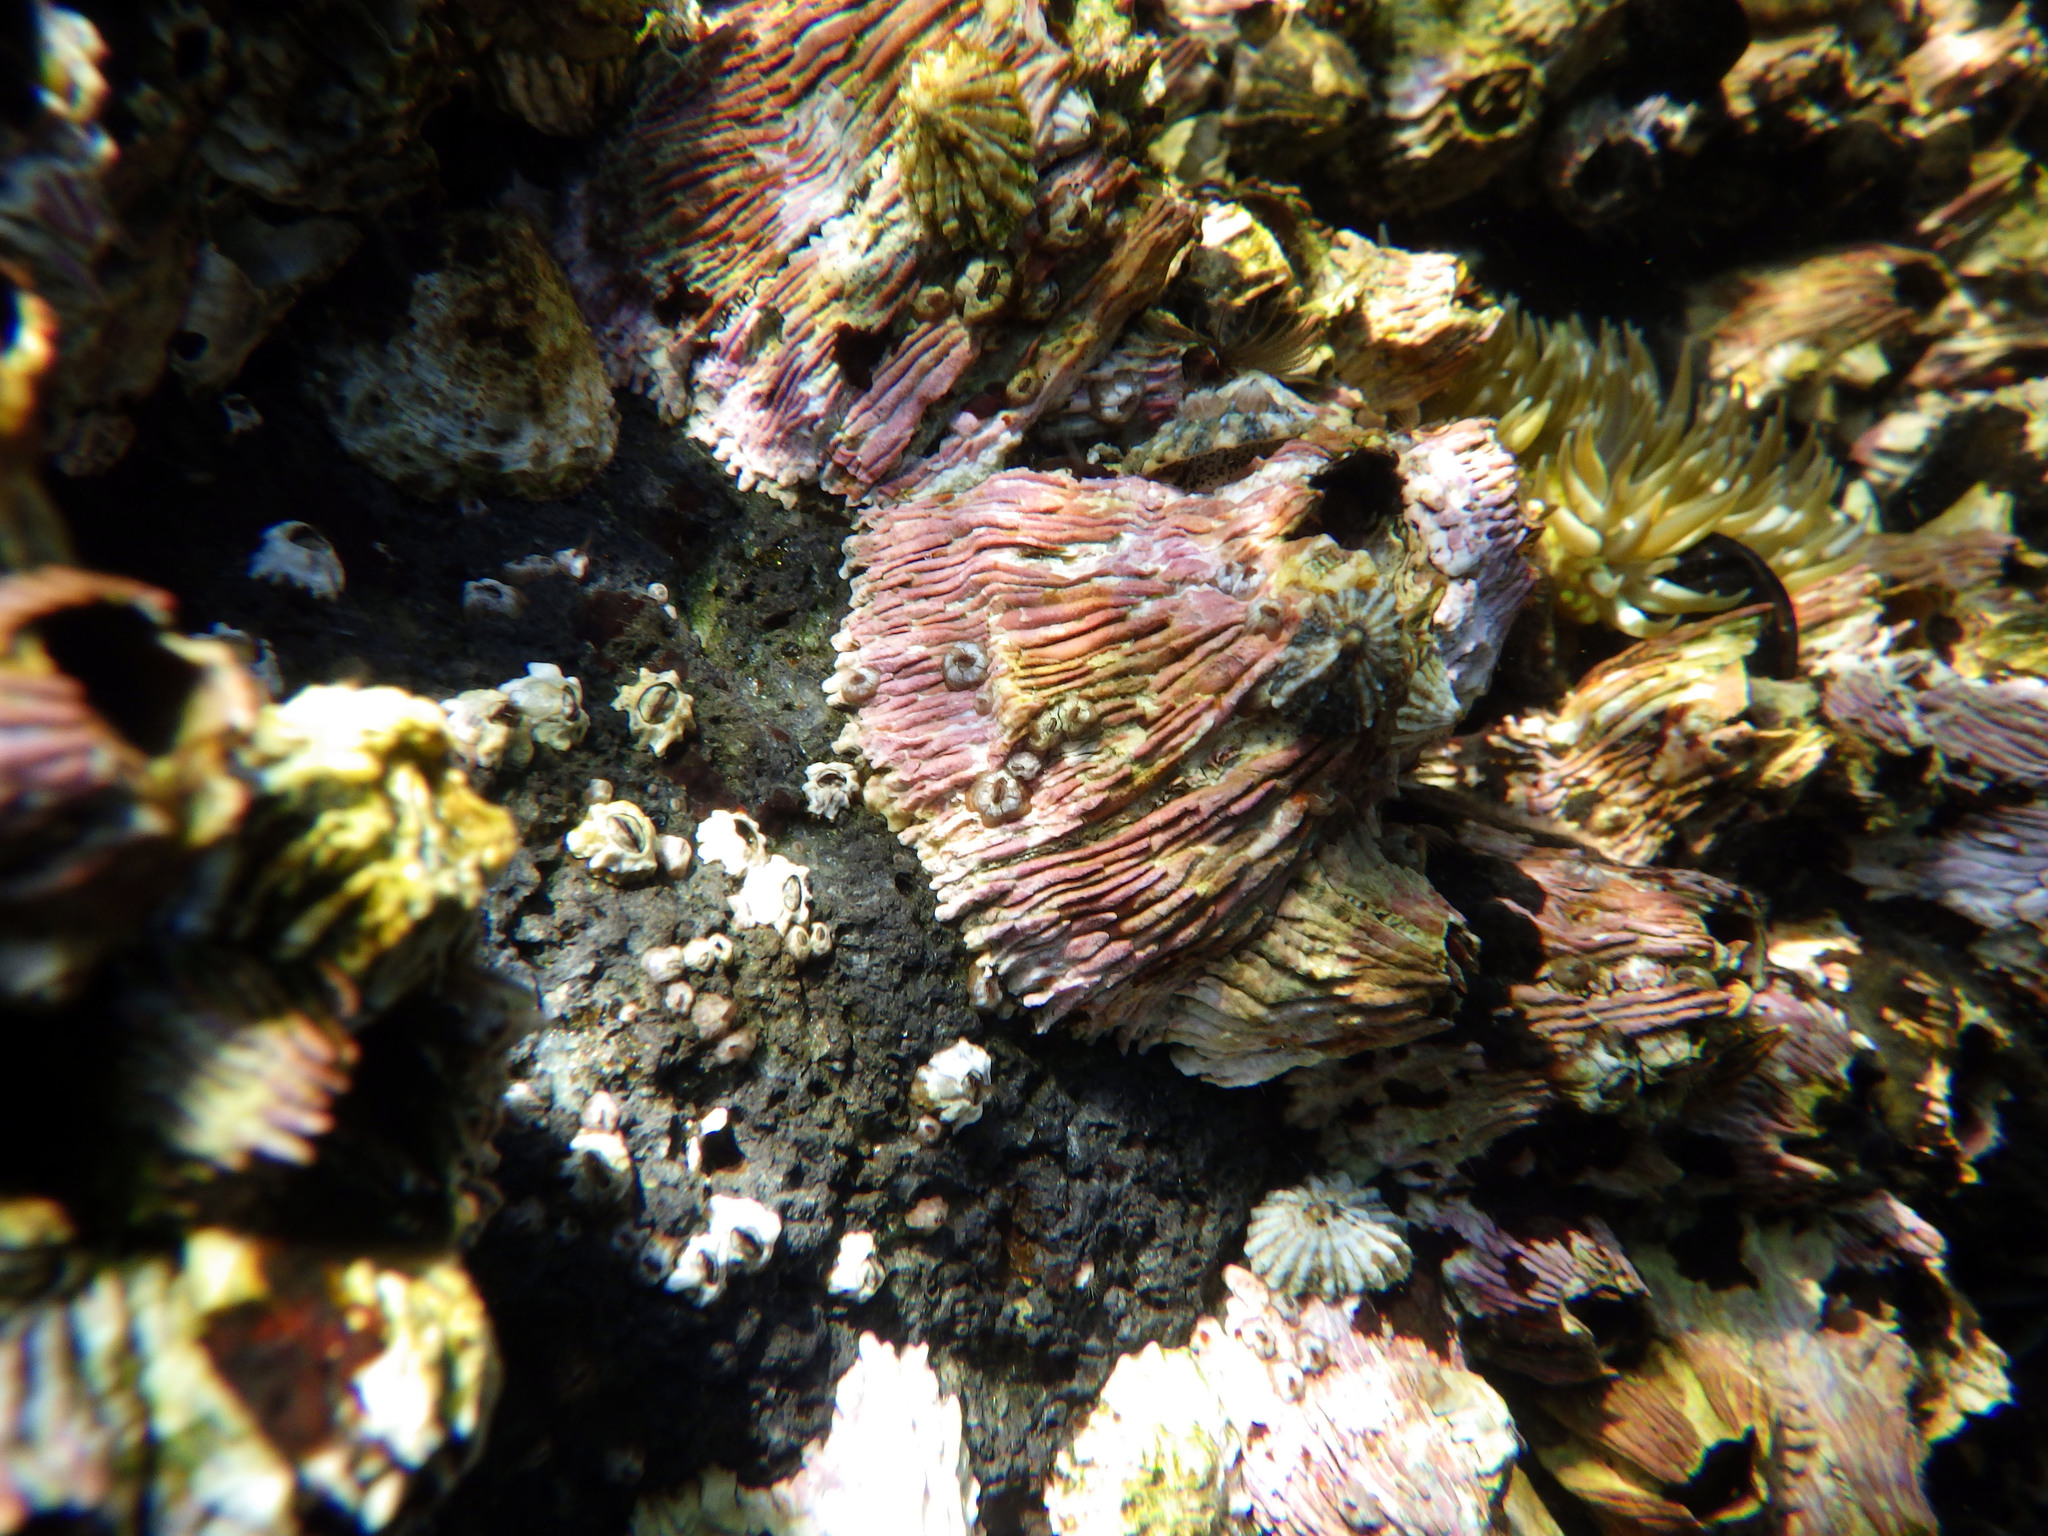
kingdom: Animalia
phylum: Arthropoda
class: Maxillopoda
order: Sessilia
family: Tetraclitidae
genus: Tetraclita
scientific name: Tetraclita rubescens
